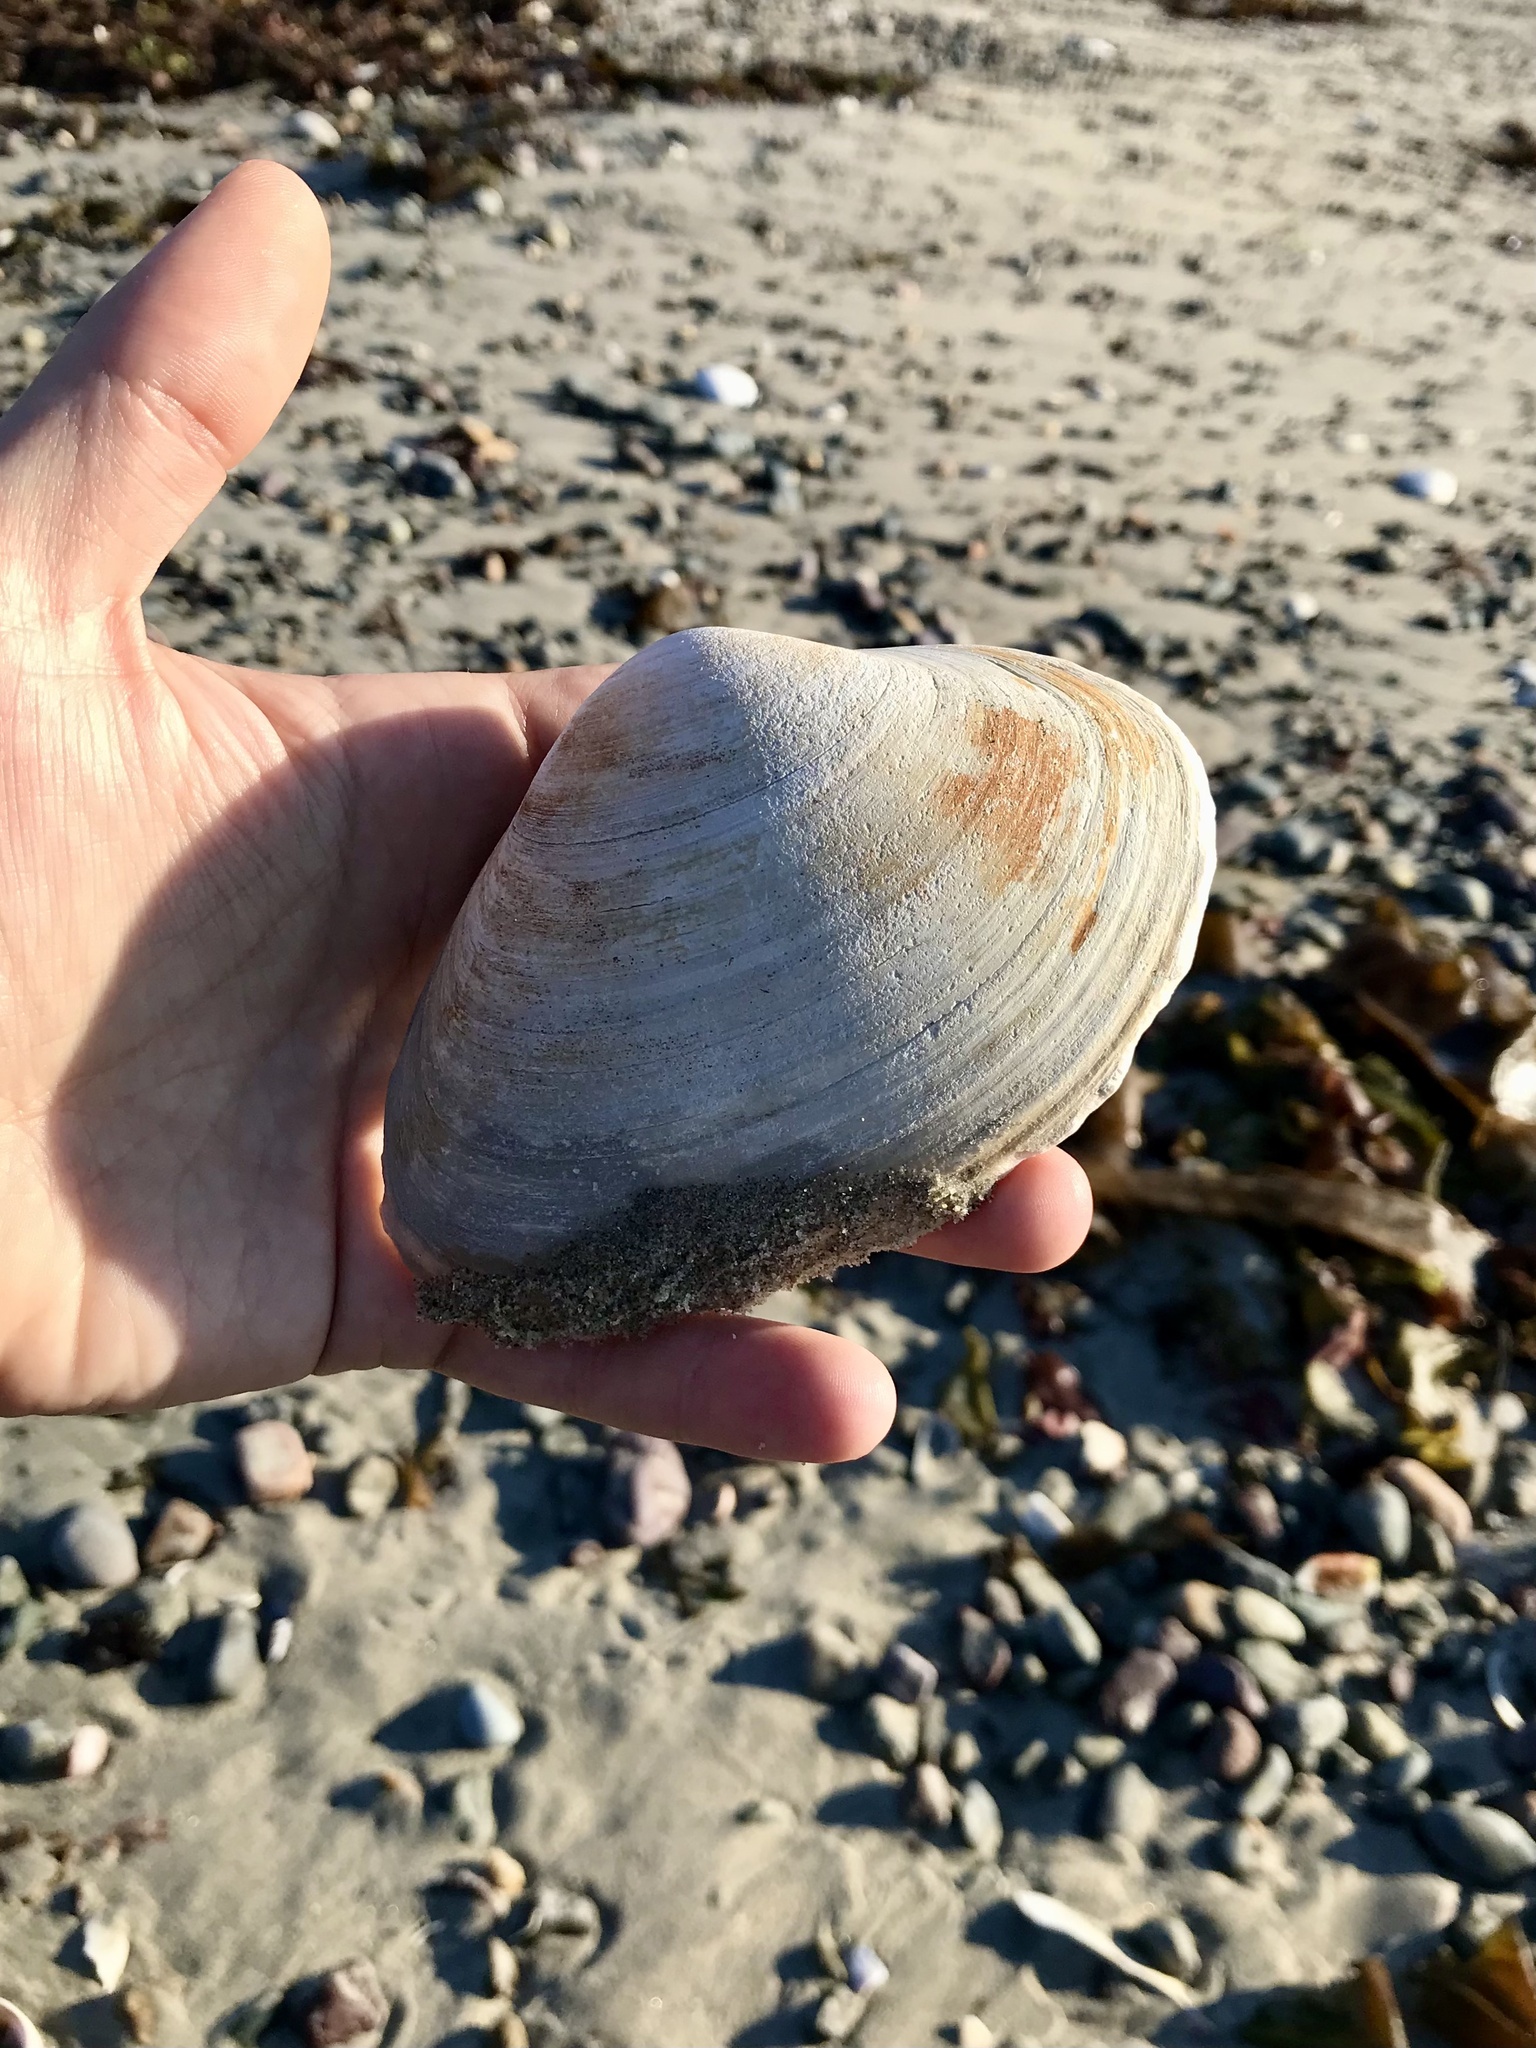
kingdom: Animalia
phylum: Mollusca
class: Bivalvia
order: Venerida
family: Mactridae
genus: Spisula
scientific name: Spisula solidissima
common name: Atlantic surf clam
